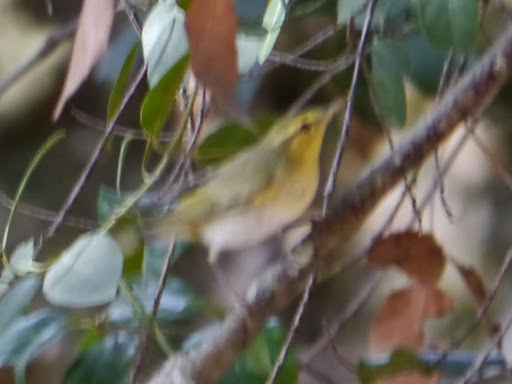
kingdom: Animalia
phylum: Chordata
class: Aves
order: Passeriformes
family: Phylloscopidae
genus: Phylloscopus
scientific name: Phylloscopus sibillatrix
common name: Wood warbler
